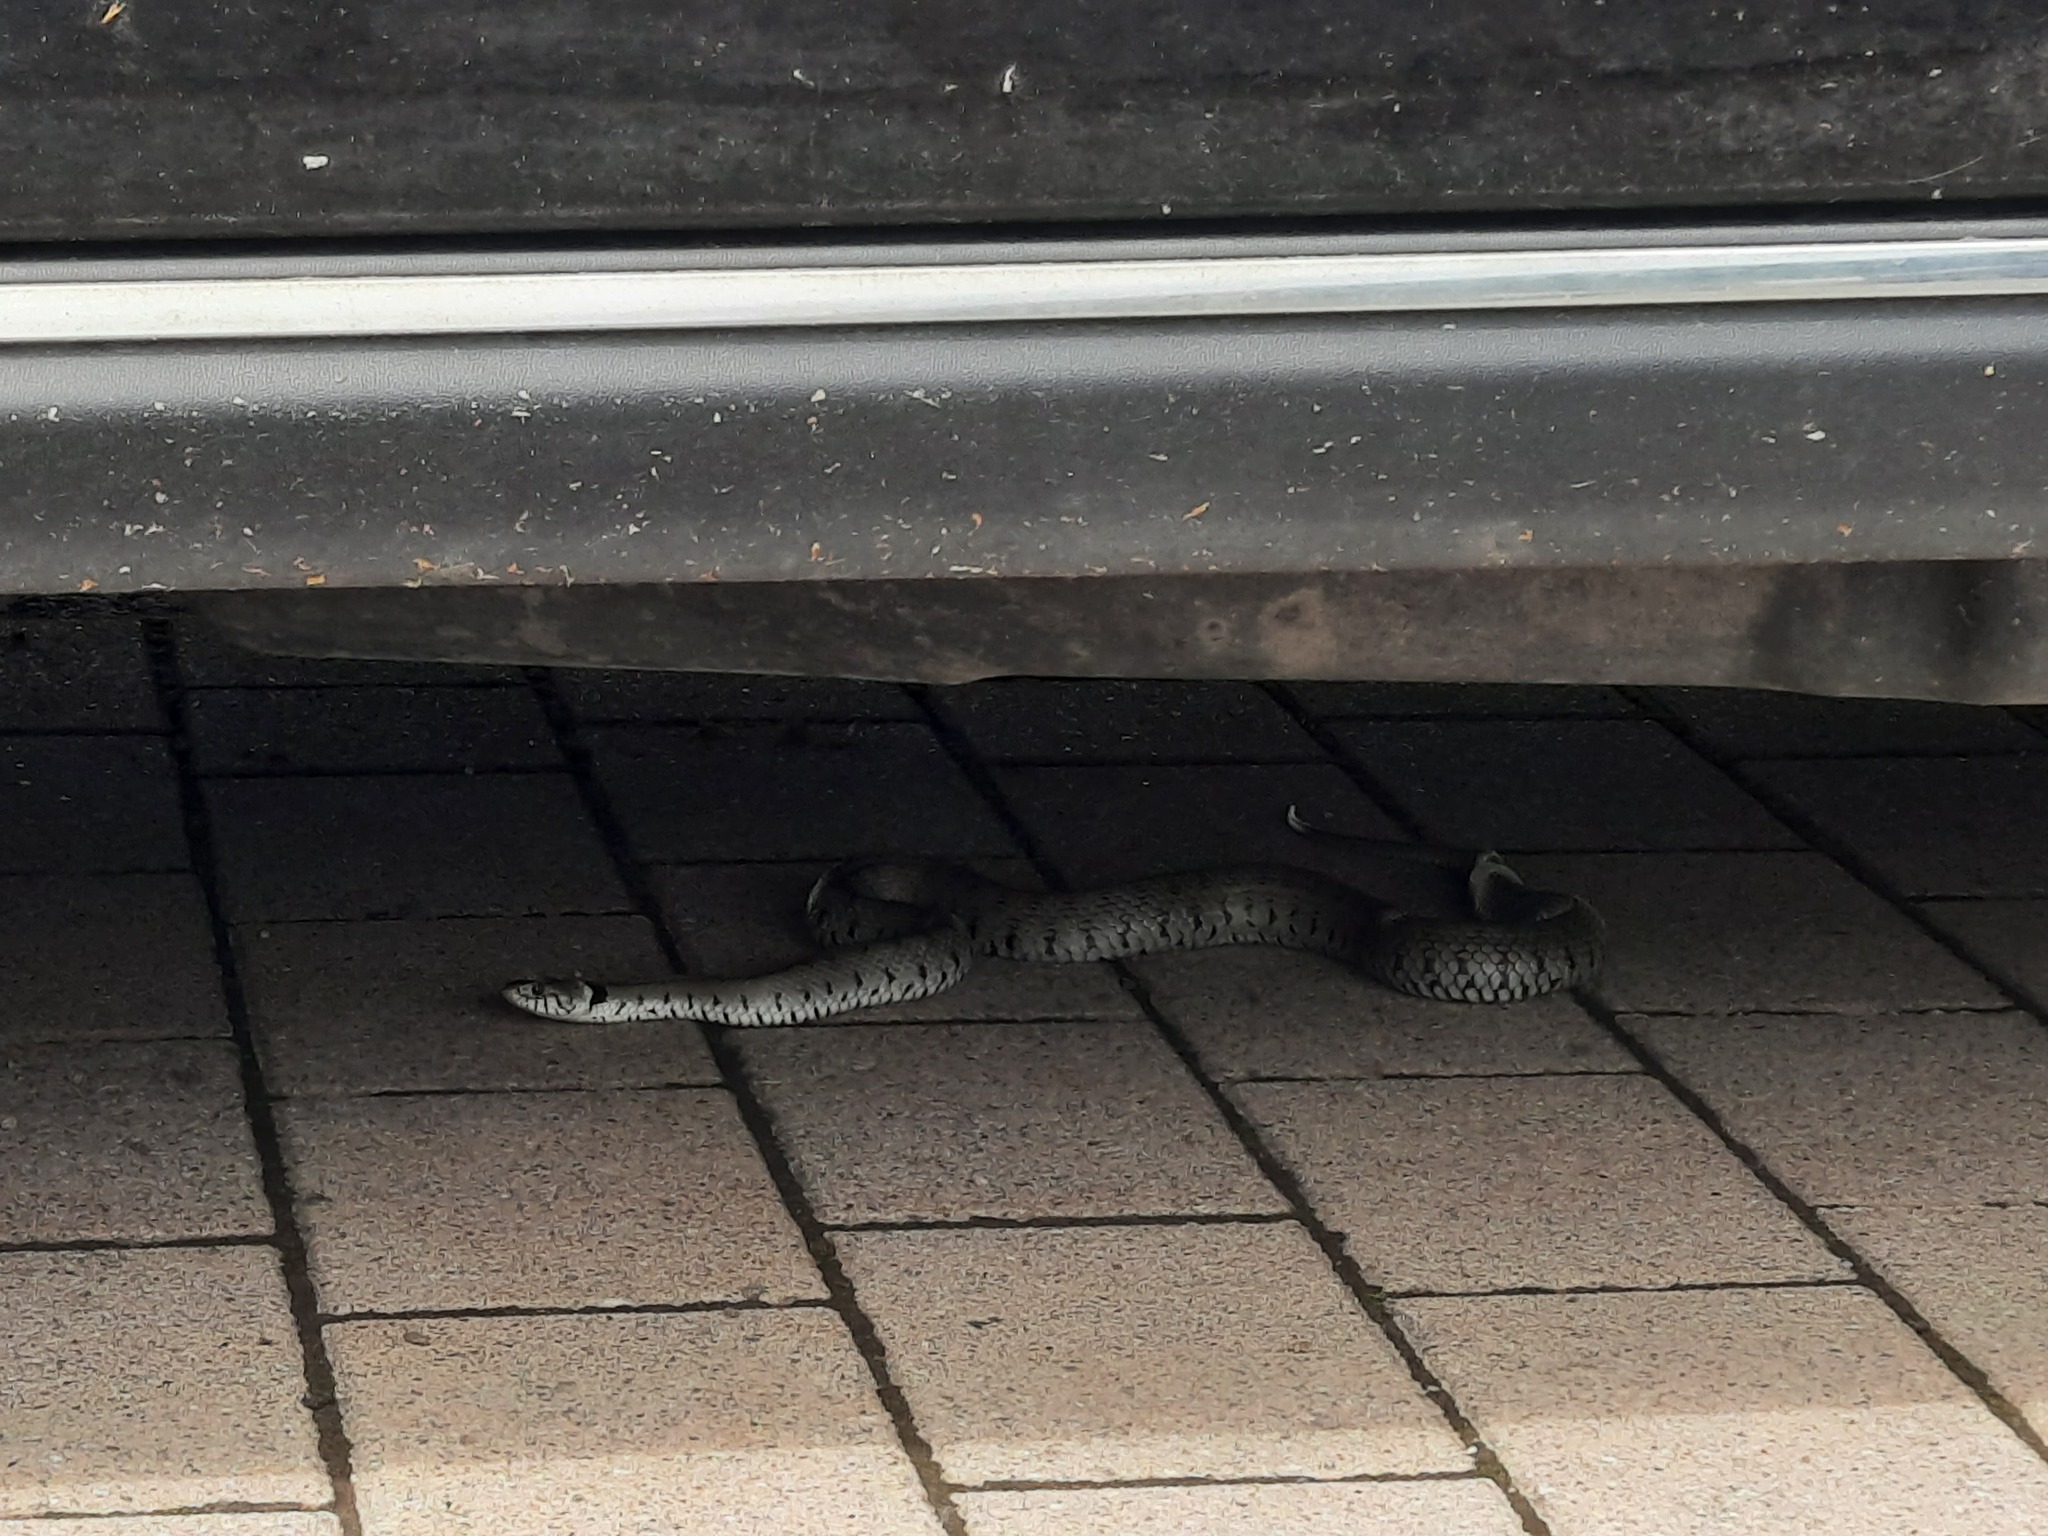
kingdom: Animalia
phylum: Chordata
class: Squamata
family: Colubridae
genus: Natrix
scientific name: Natrix helvetica
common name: Banded grass snake
